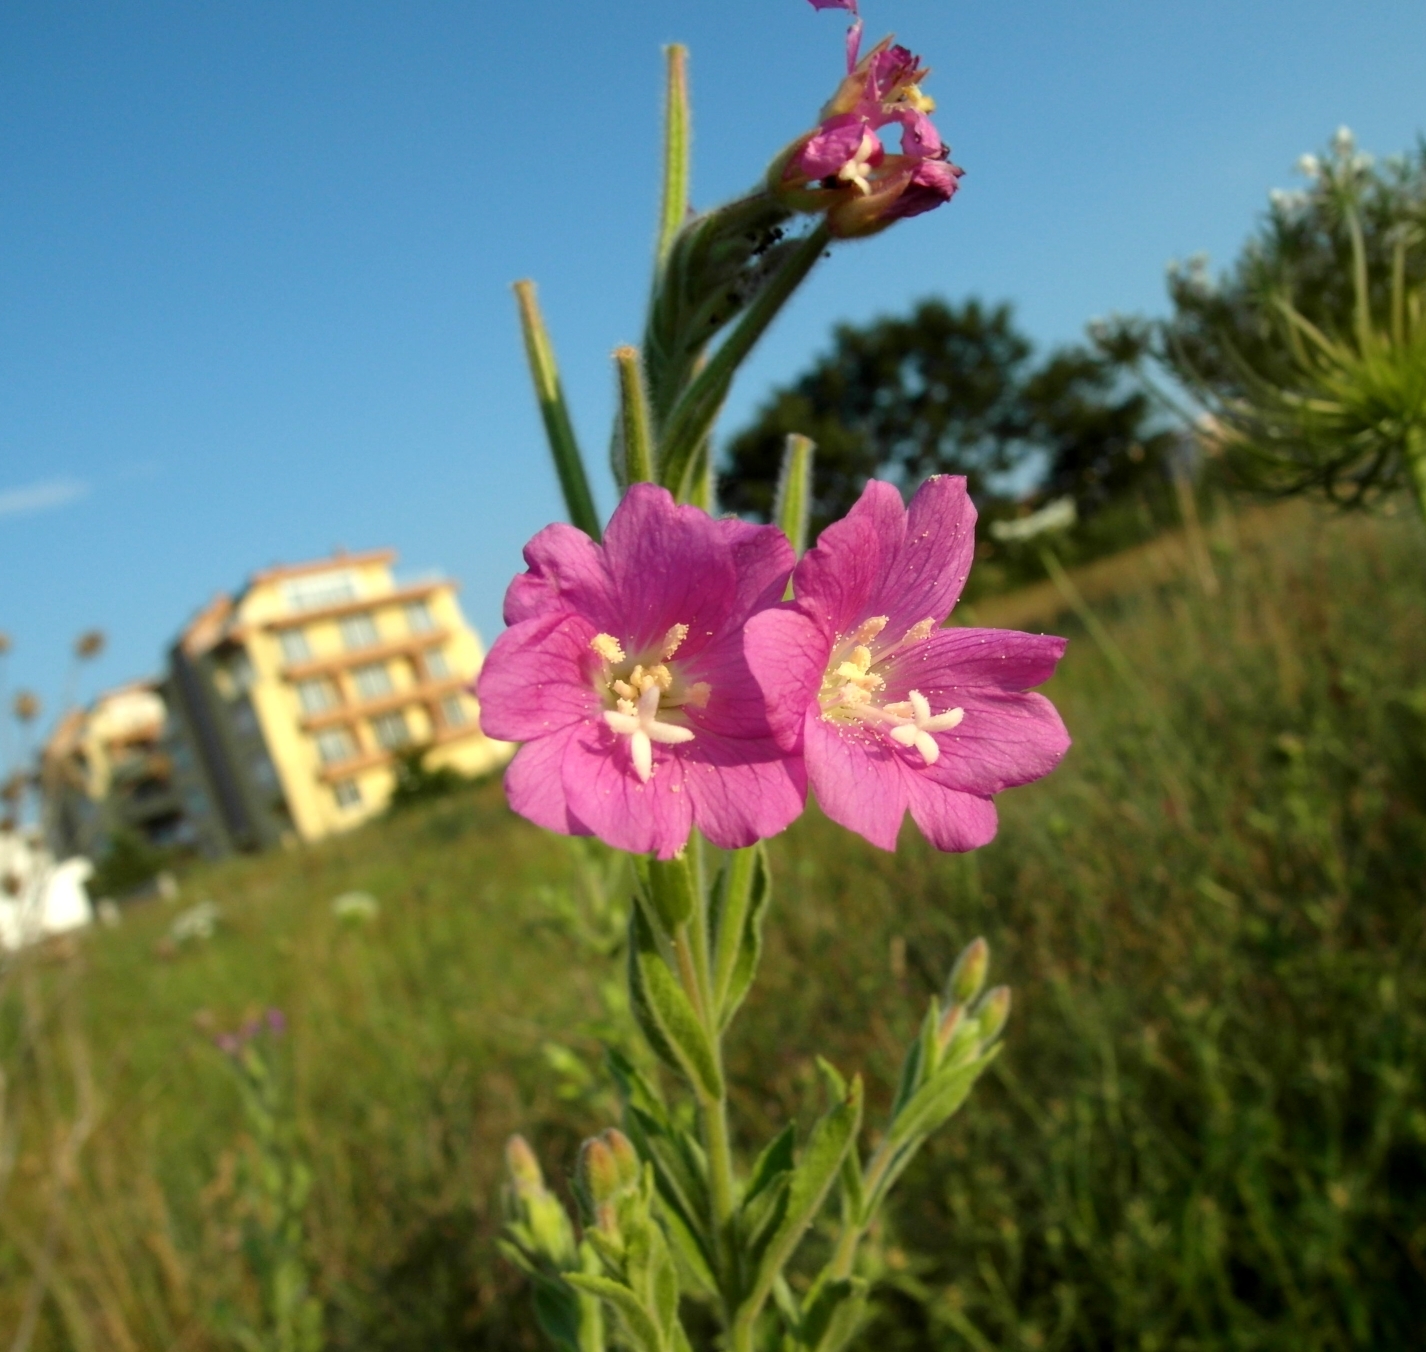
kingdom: Plantae
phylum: Tracheophyta
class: Magnoliopsida
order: Myrtales
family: Onagraceae
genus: Epilobium
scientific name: Epilobium hirsutum
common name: Great willowherb
